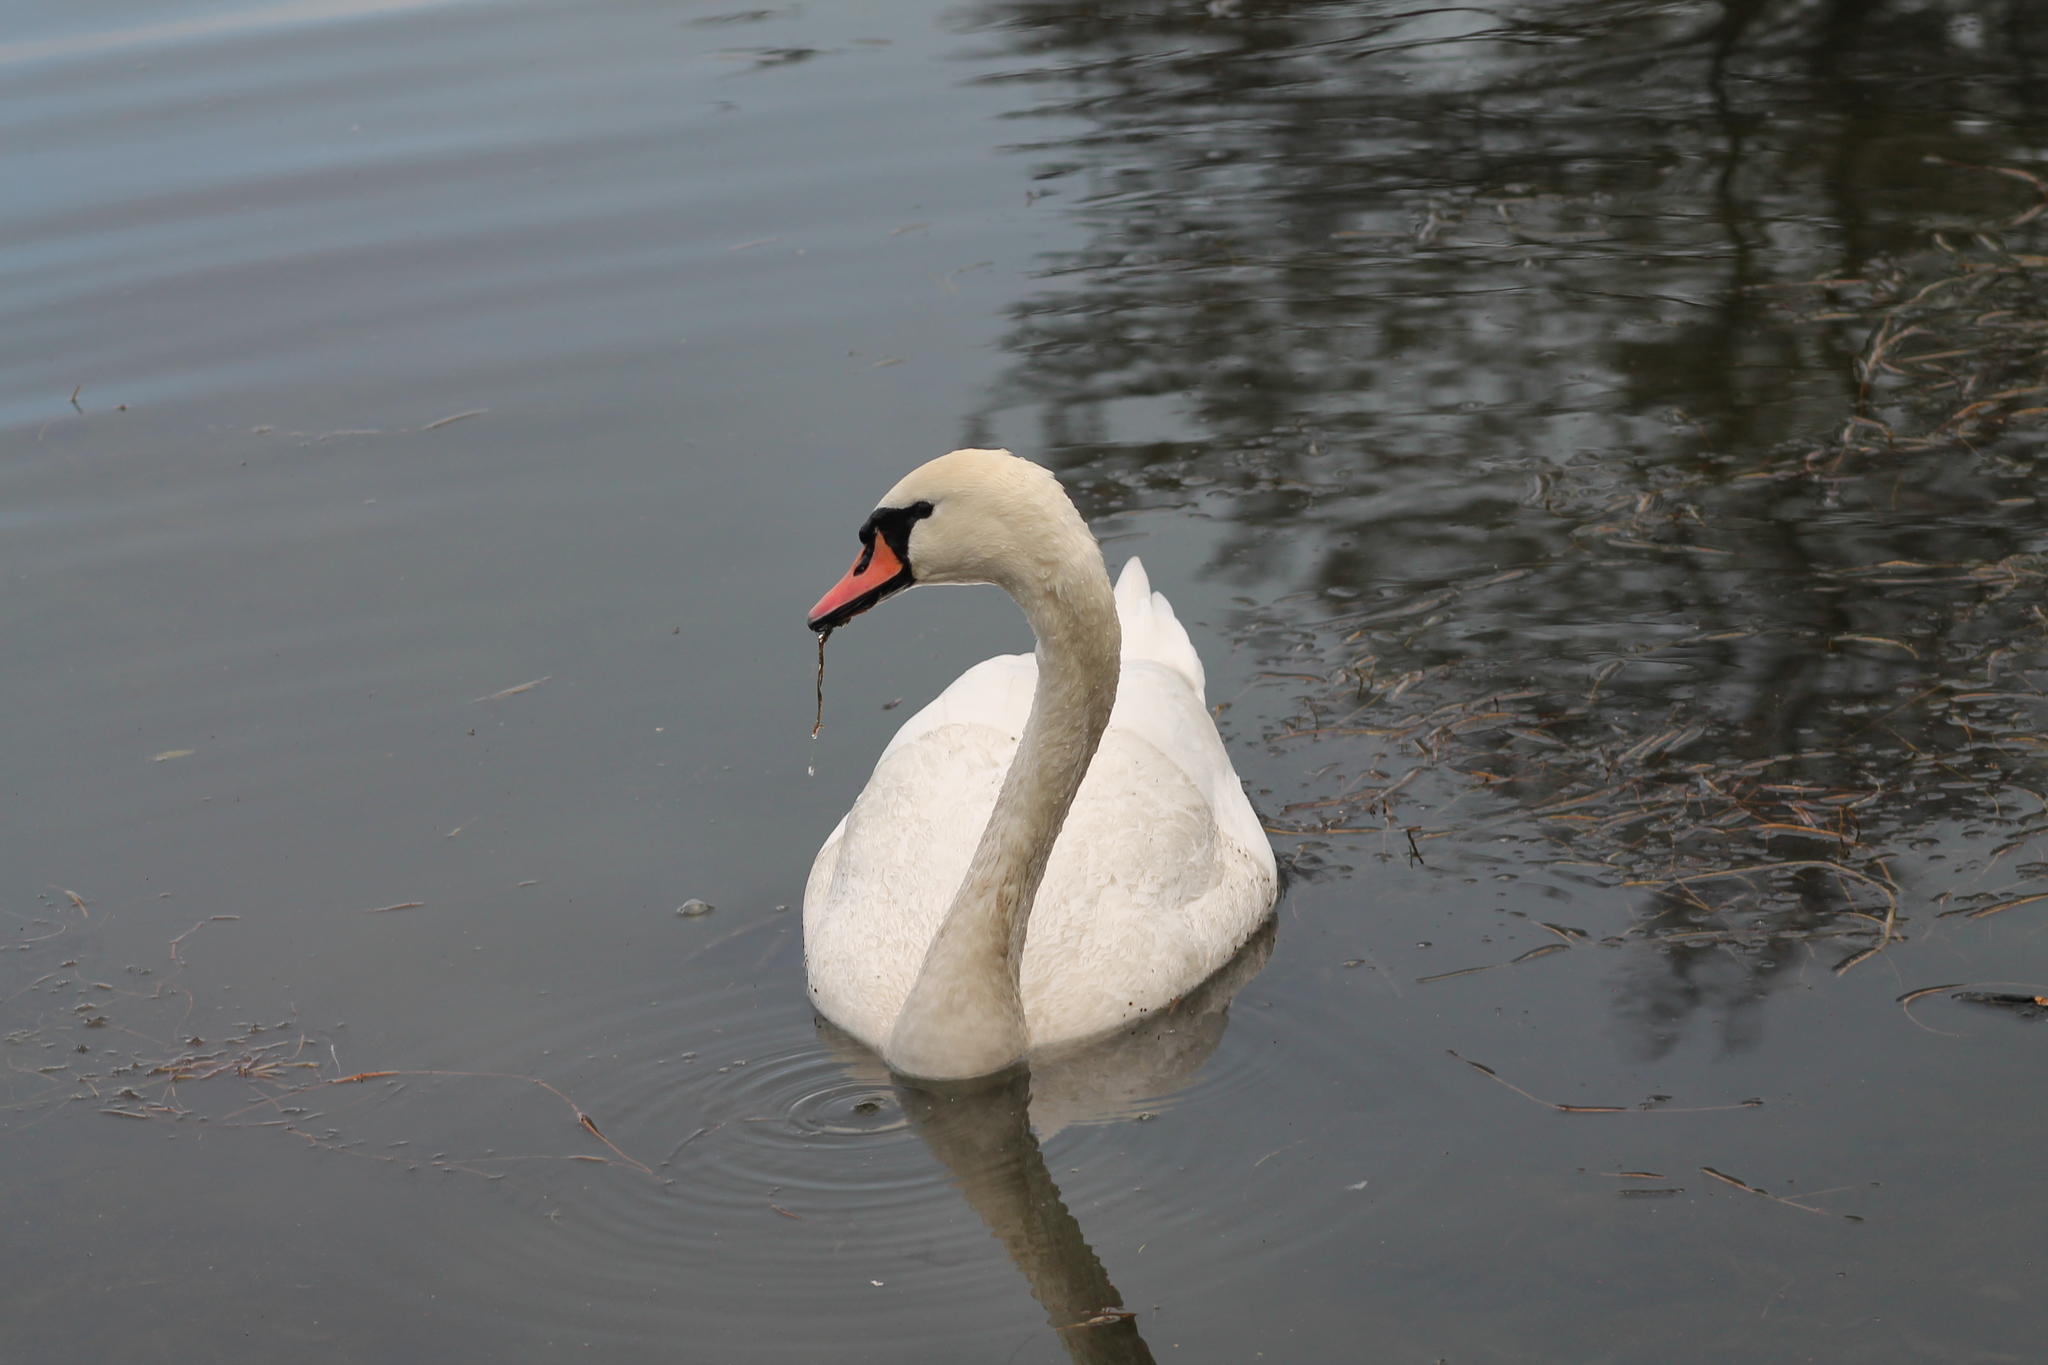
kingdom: Animalia
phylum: Chordata
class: Aves
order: Anseriformes
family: Anatidae
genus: Cygnus
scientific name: Cygnus olor
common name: Mute swan
